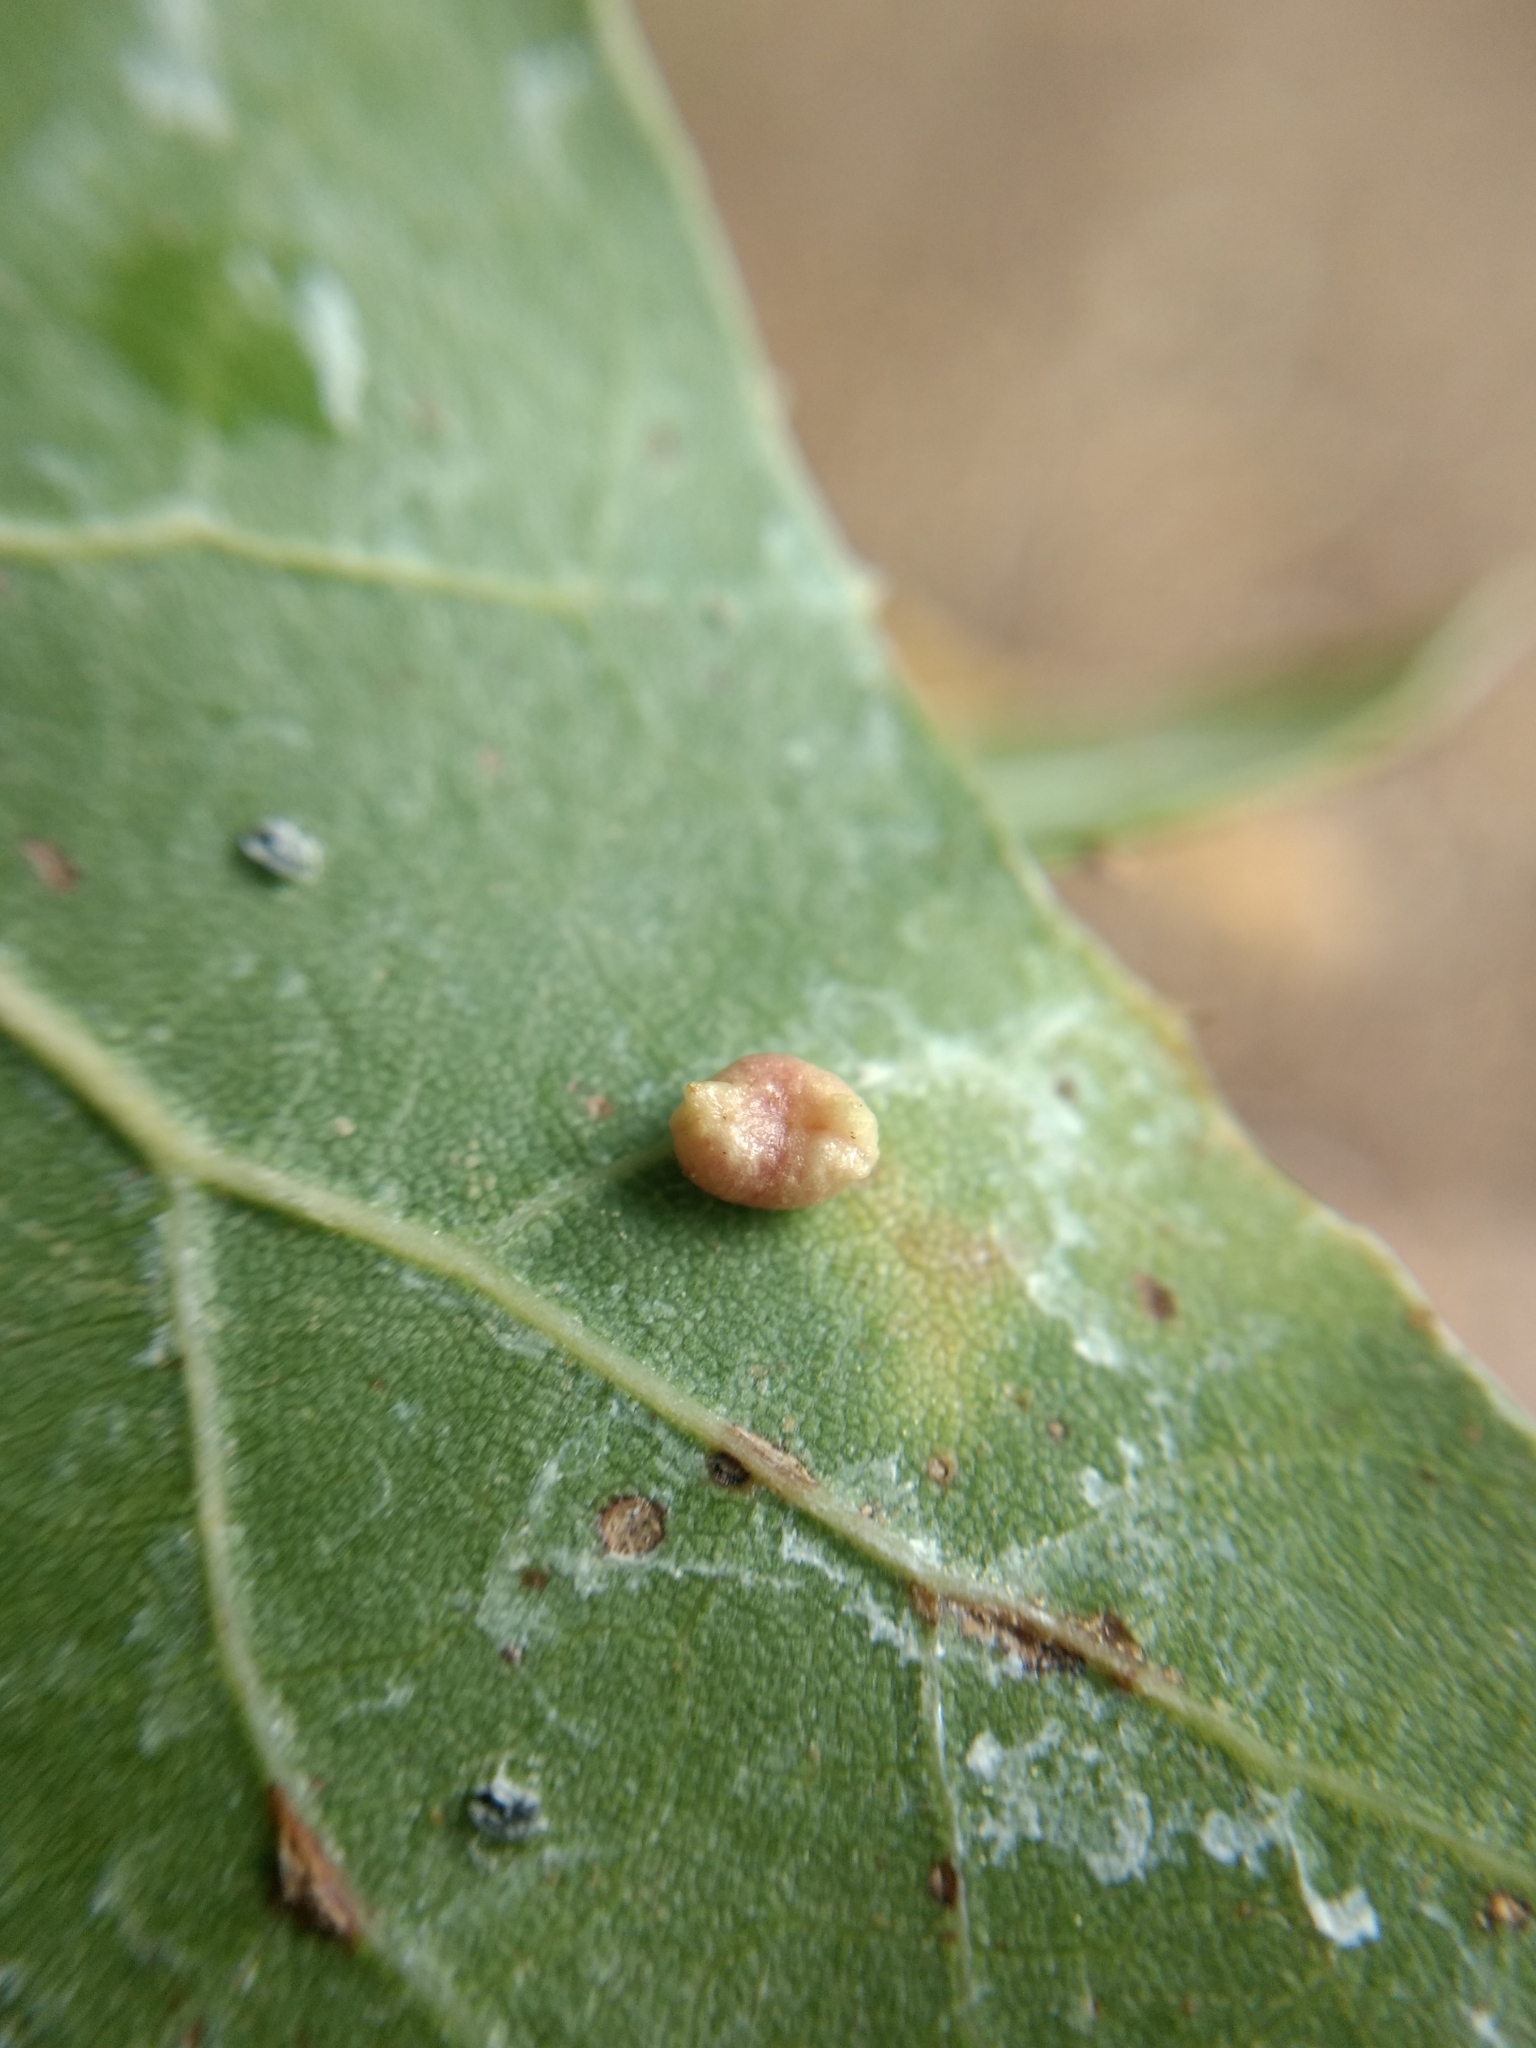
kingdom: Animalia
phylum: Arthropoda
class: Insecta
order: Hymenoptera
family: Cynipidae
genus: Dryocosmus
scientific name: Dryocosmus
